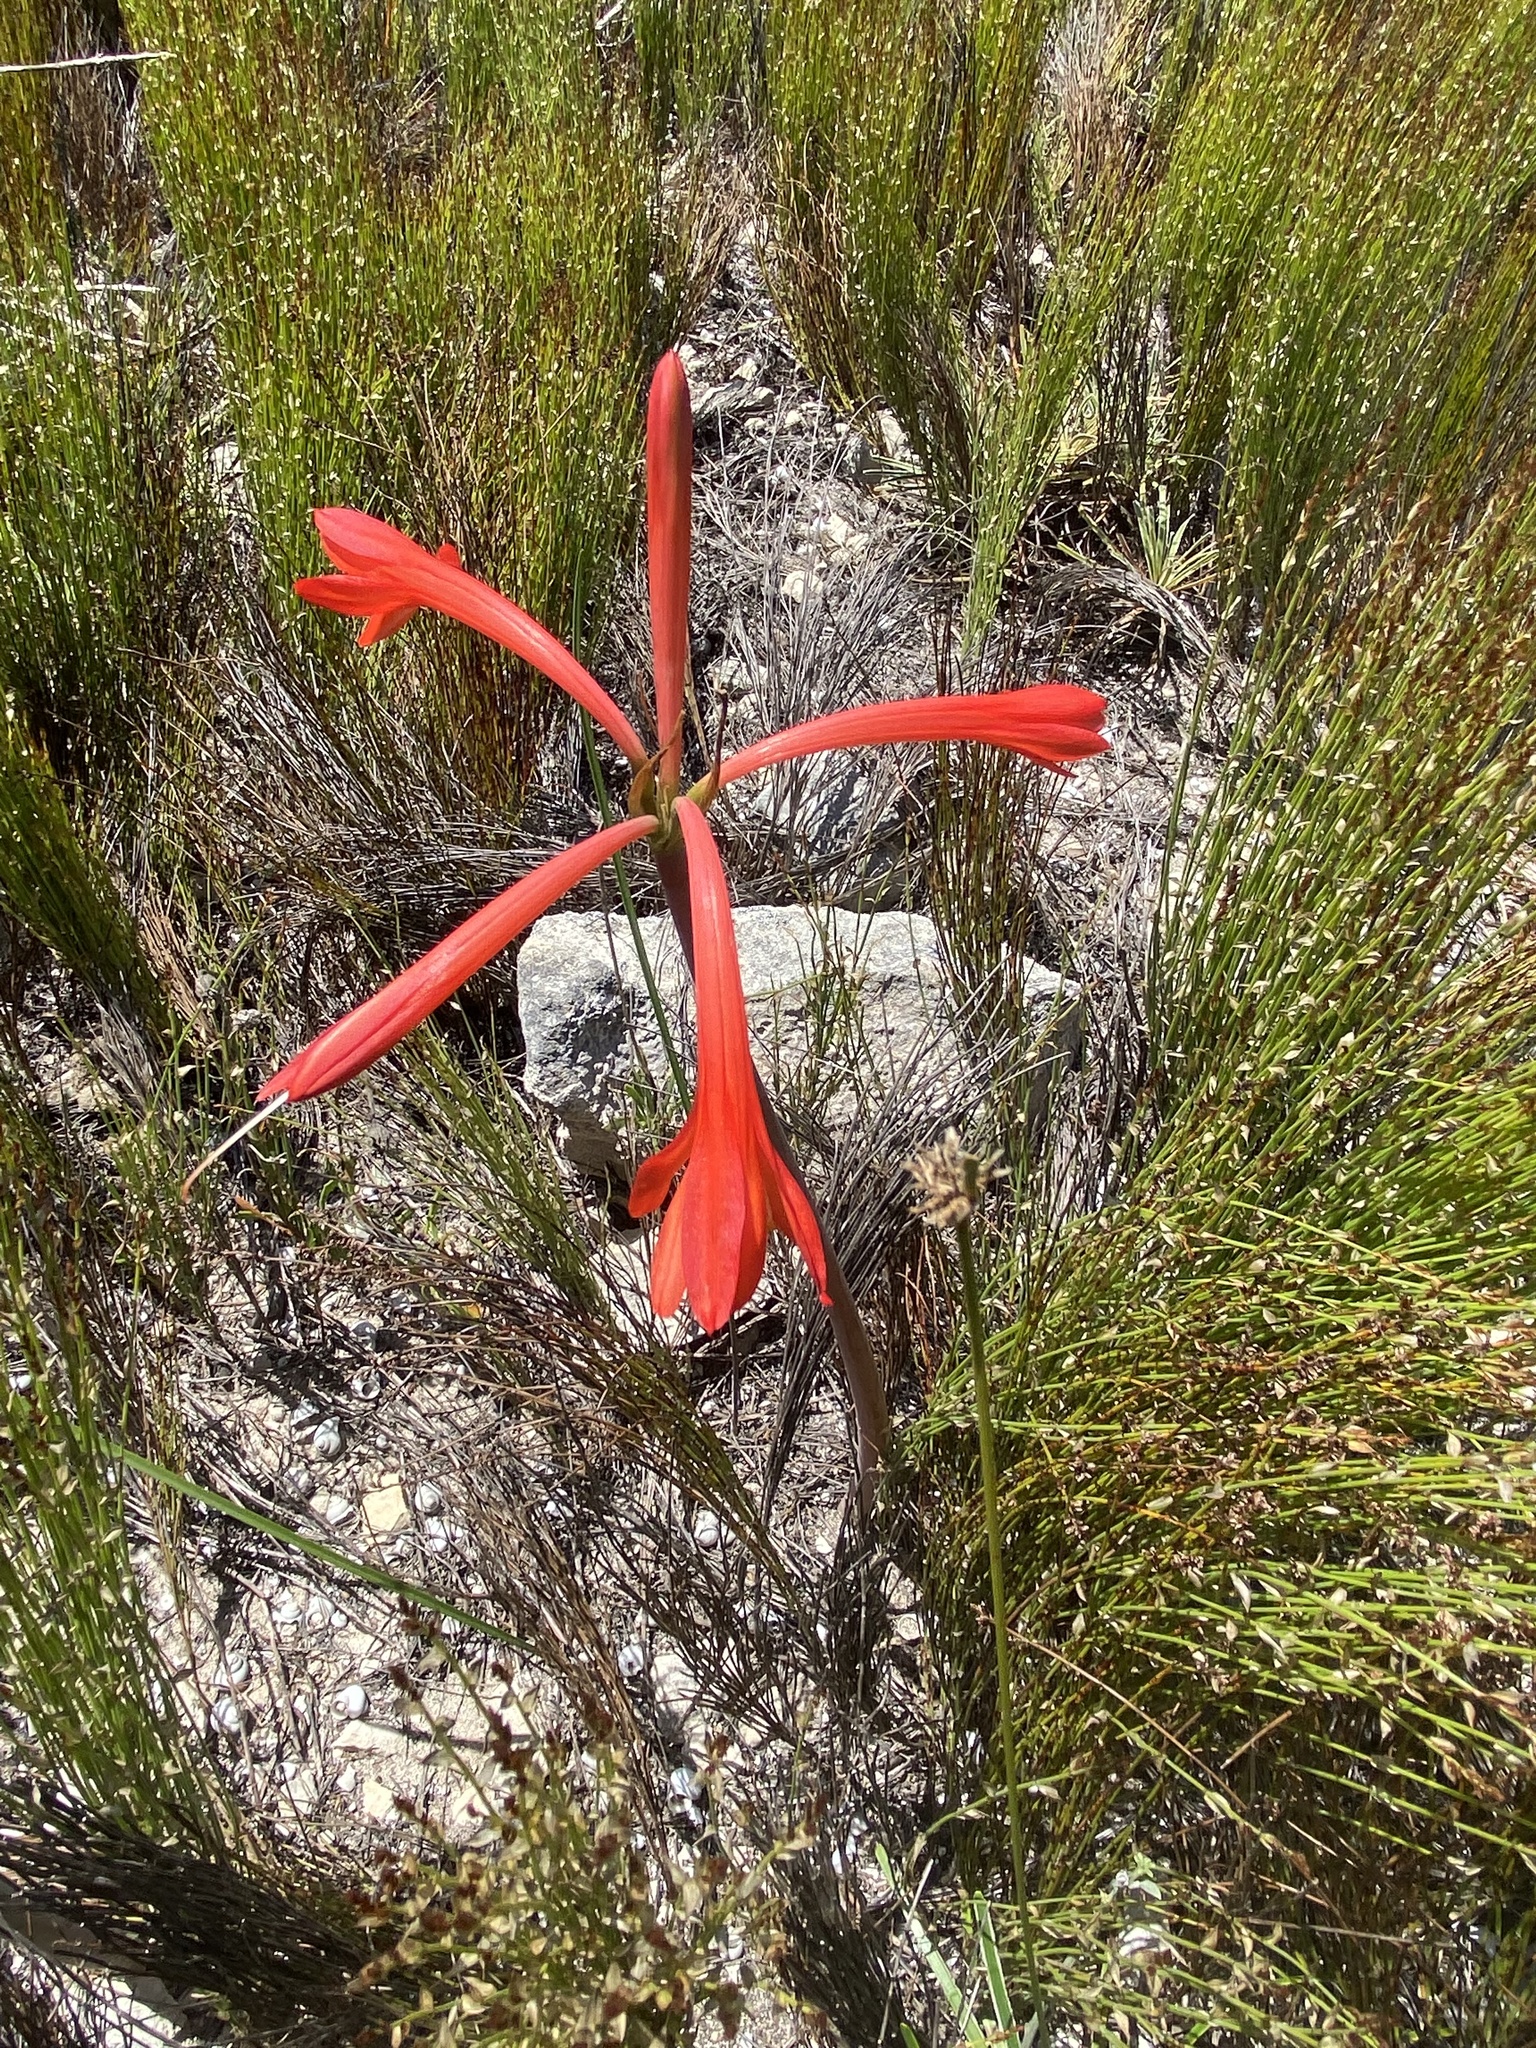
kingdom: Plantae
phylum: Tracheophyta
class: Liliopsida
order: Asparagales
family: Amaryllidaceae
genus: Cyrtanthus
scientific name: Cyrtanthus fergusoniae
